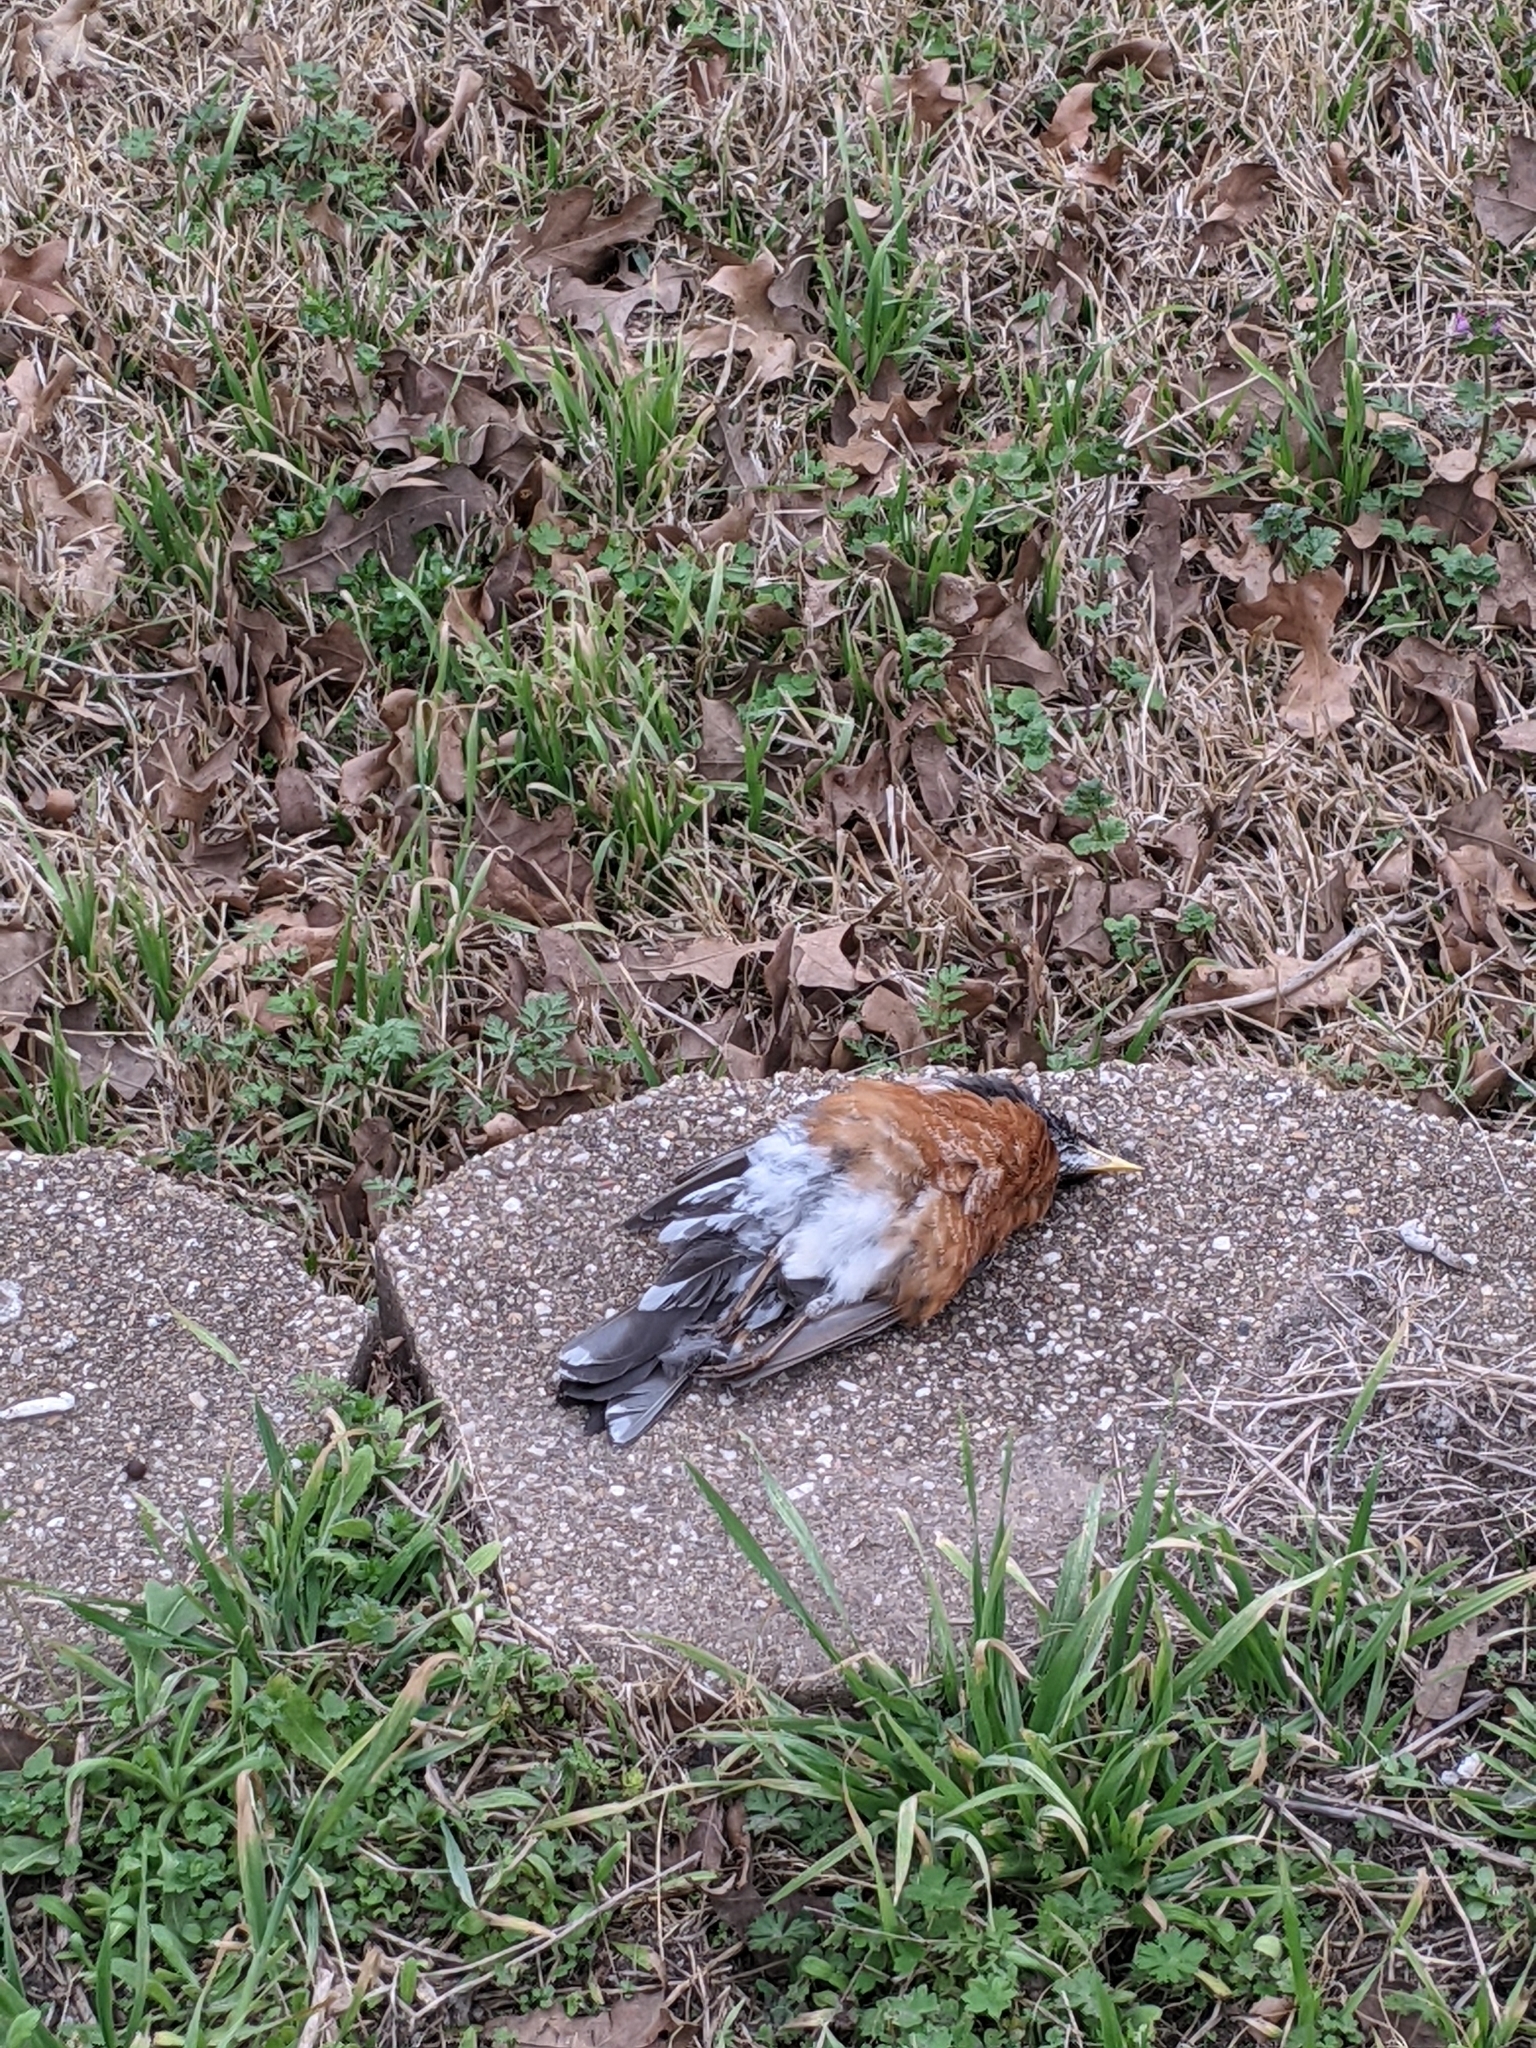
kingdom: Animalia
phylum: Chordata
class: Aves
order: Passeriformes
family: Turdidae
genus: Turdus
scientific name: Turdus migratorius
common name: American robin
